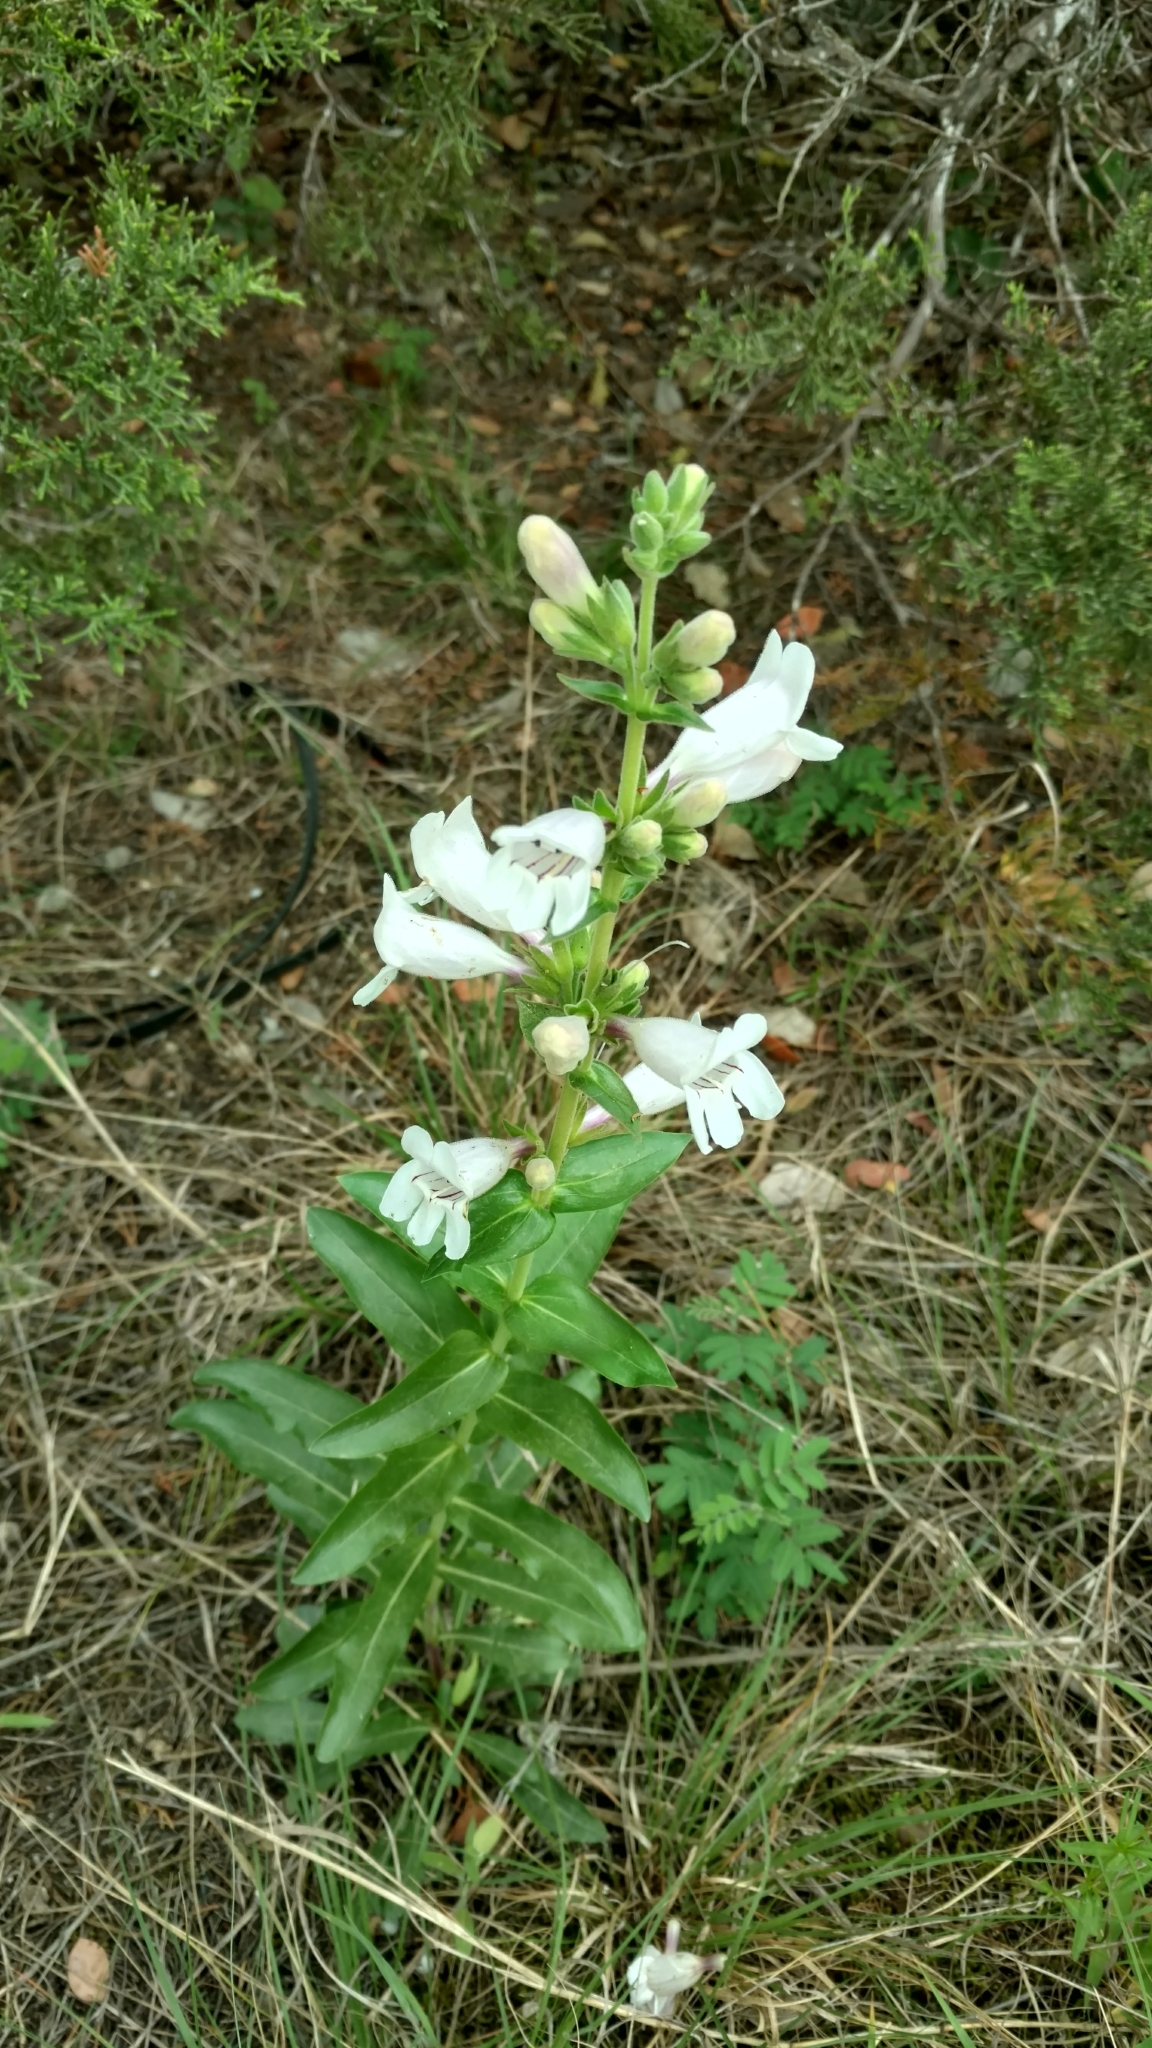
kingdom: Plantae
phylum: Tracheophyta
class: Magnoliopsida
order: Lamiales
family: Plantaginaceae
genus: Penstemon
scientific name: Penstemon cobaea
